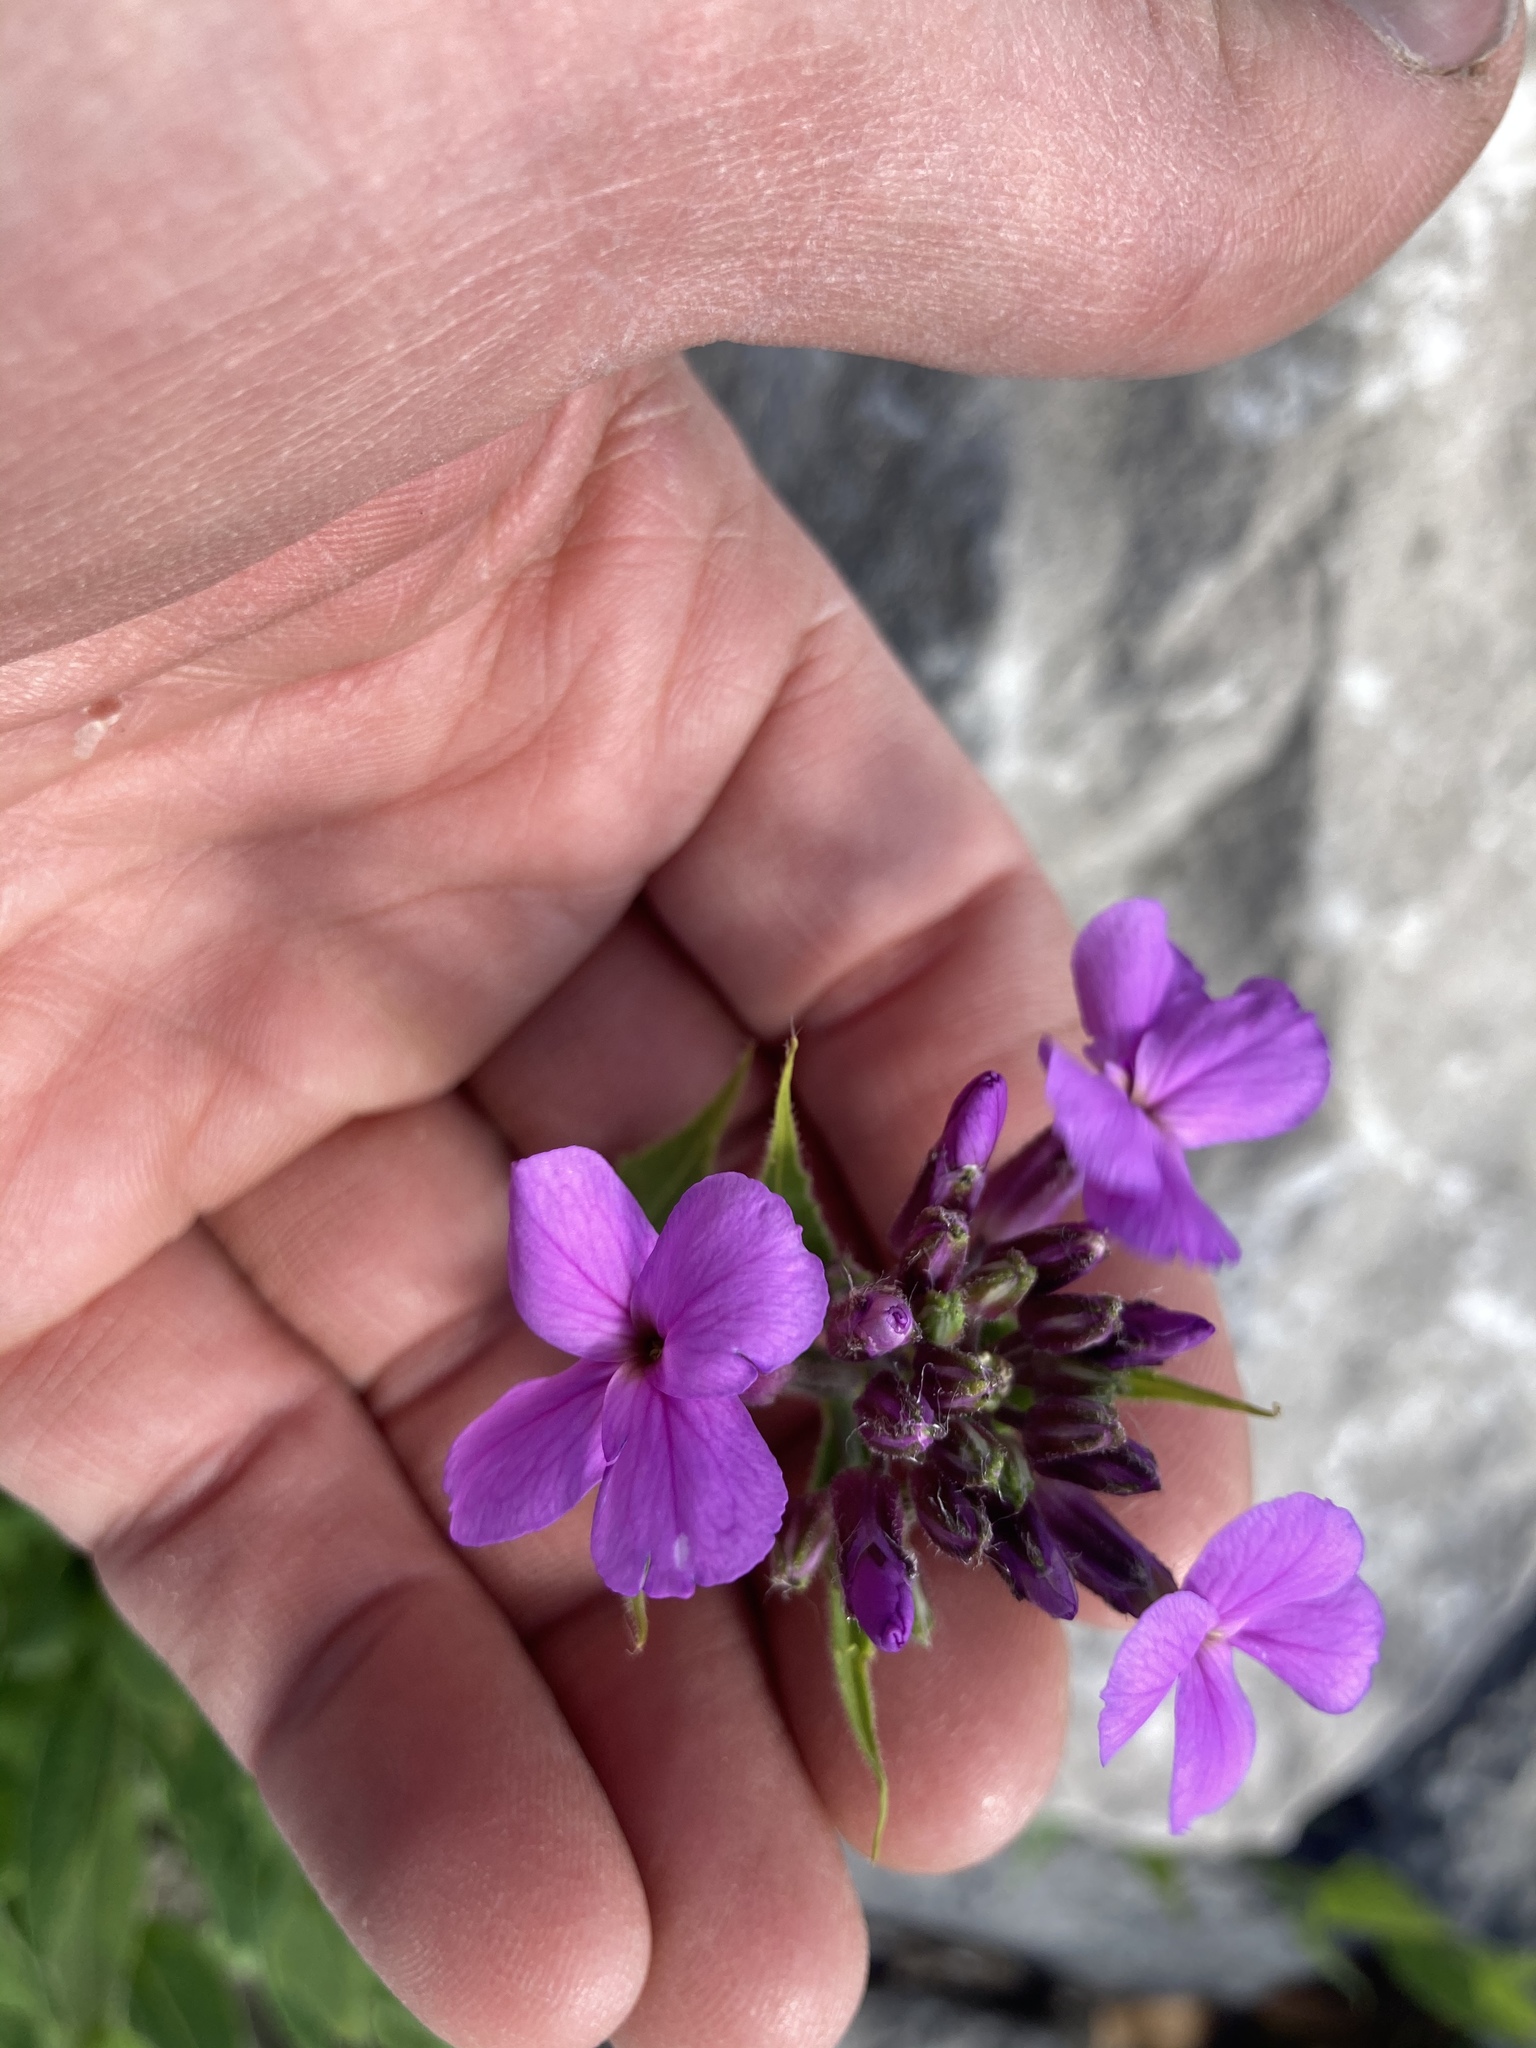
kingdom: Plantae
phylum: Tracheophyta
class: Magnoliopsida
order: Brassicales
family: Brassicaceae
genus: Hesperis
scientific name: Hesperis matronalis
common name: Dame's-violet
